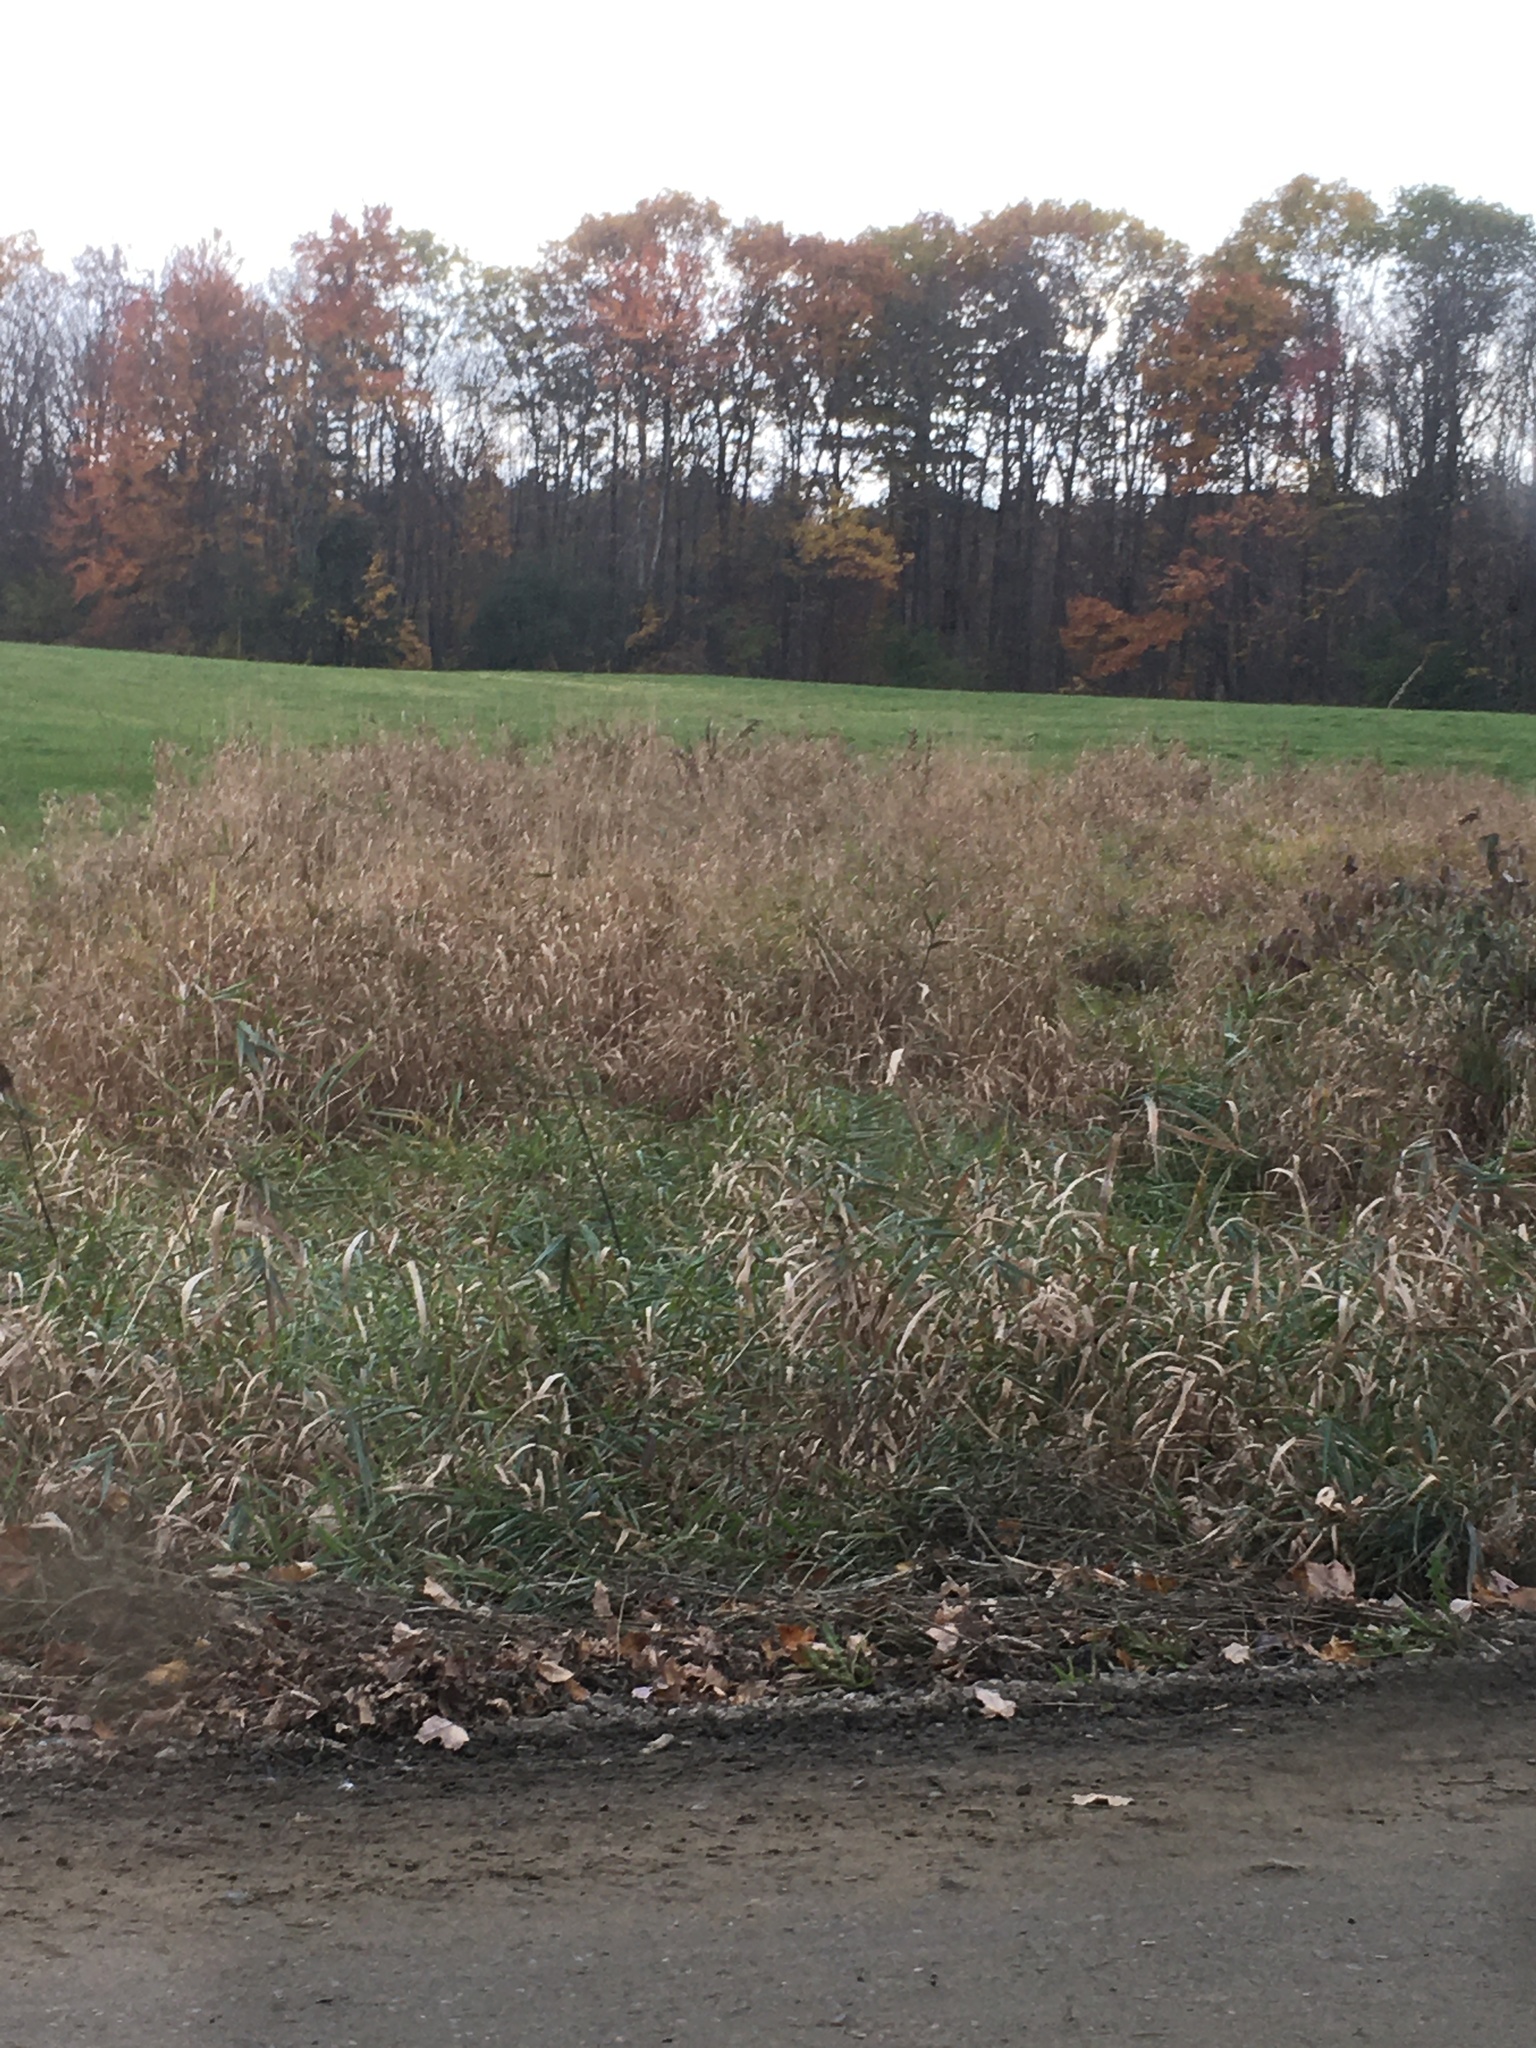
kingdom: Plantae
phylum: Tracheophyta
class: Liliopsida
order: Poales
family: Poaceae
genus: Phalaris
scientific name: Phalaris arundinacea
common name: Reed canary-grass
